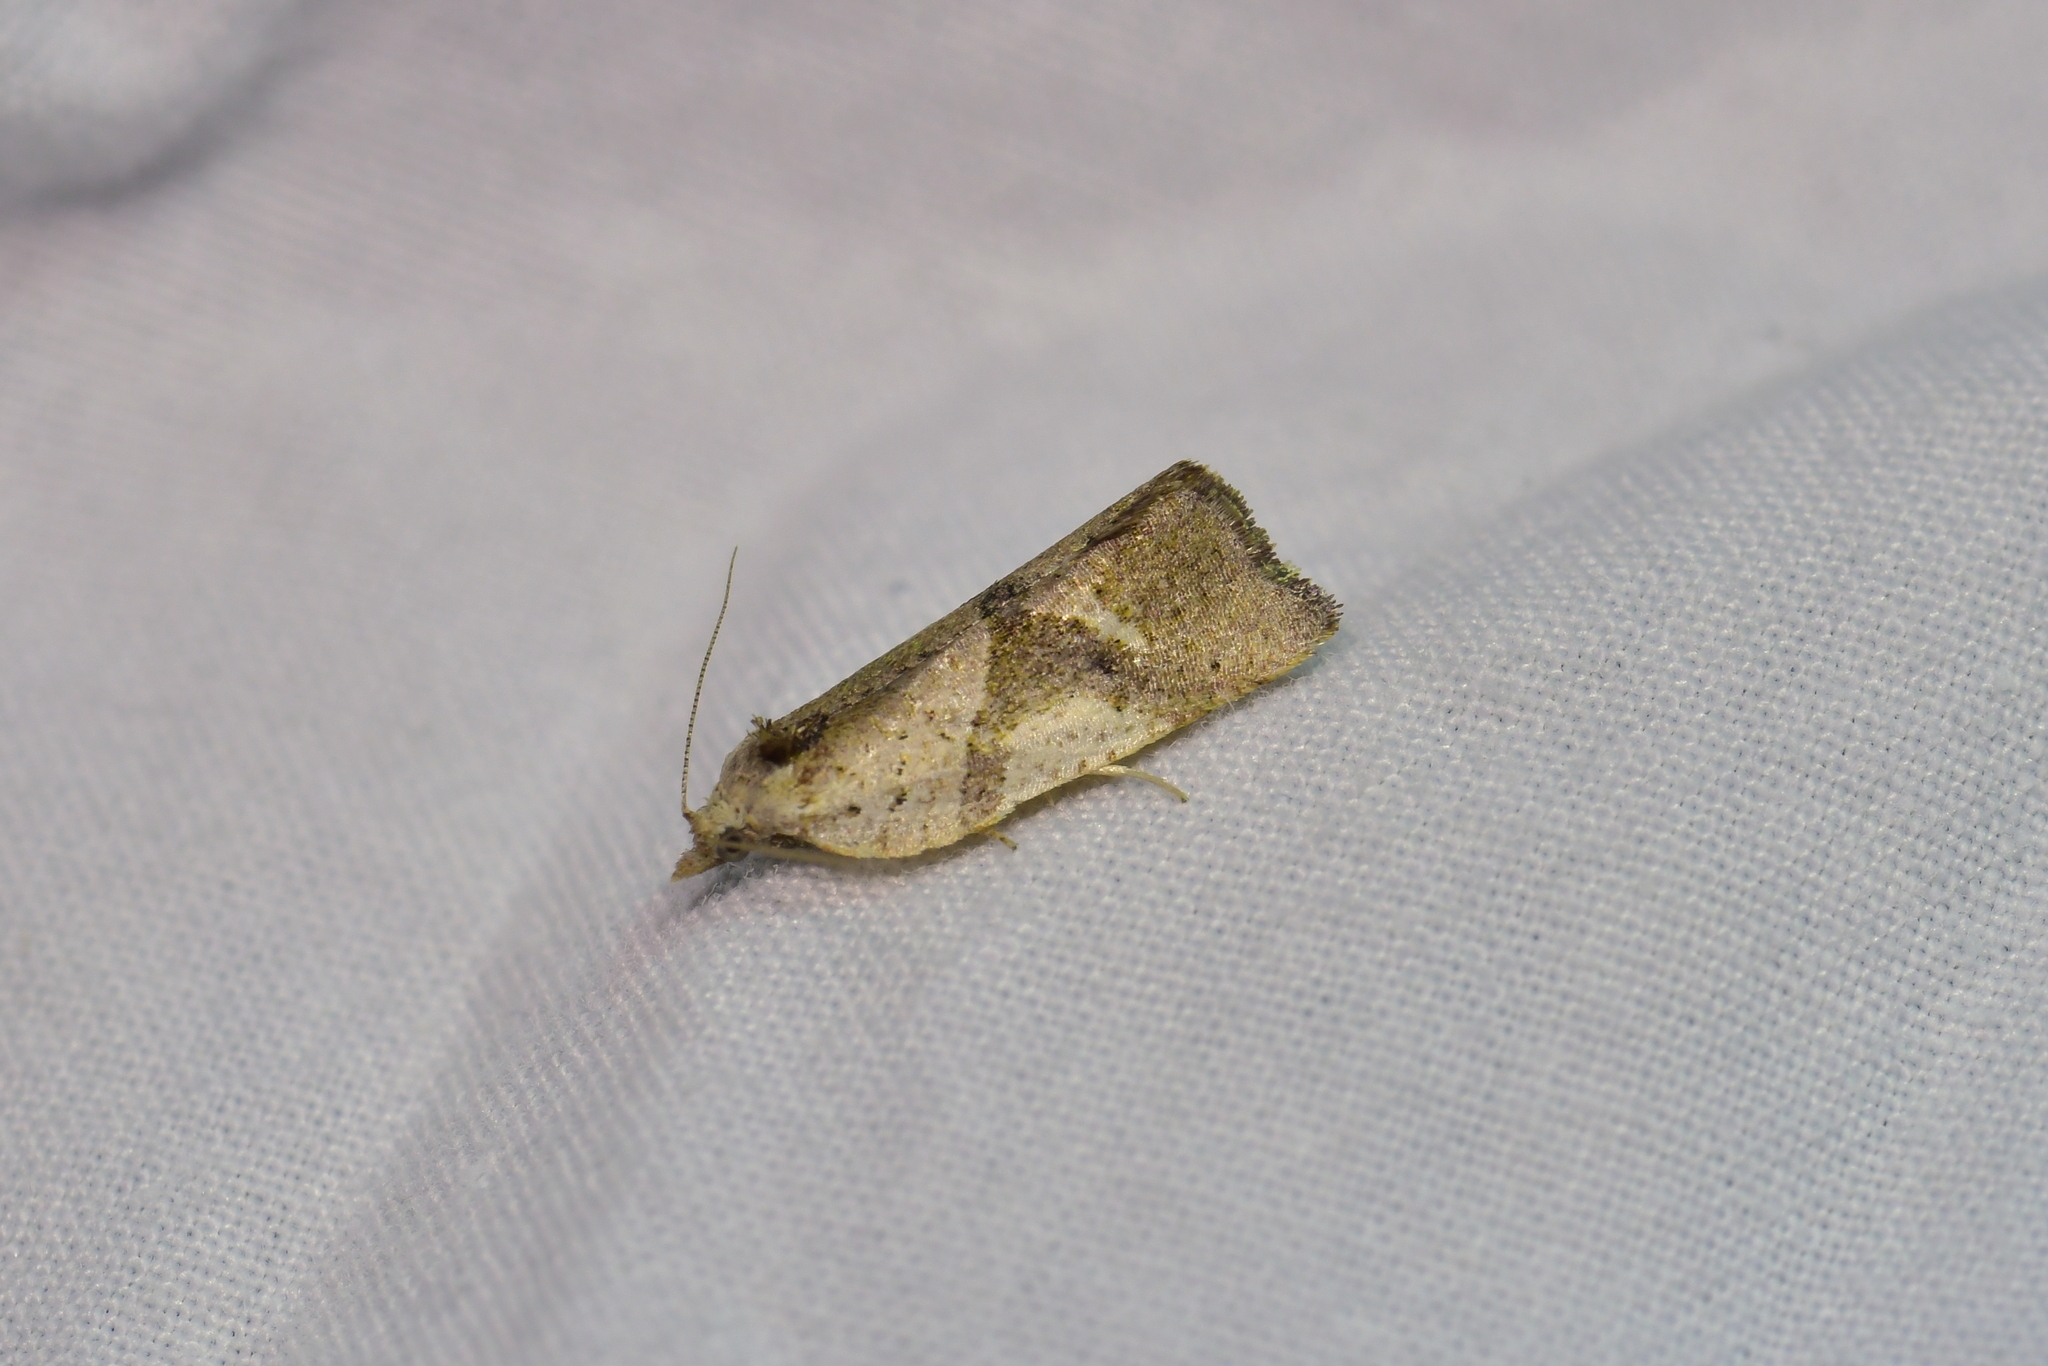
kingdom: Animalia
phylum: Arthropoda
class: Insecta
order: Lepidoptera
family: Tortricidae
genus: Pyrgotis
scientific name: Pyrgotis plagiatana
